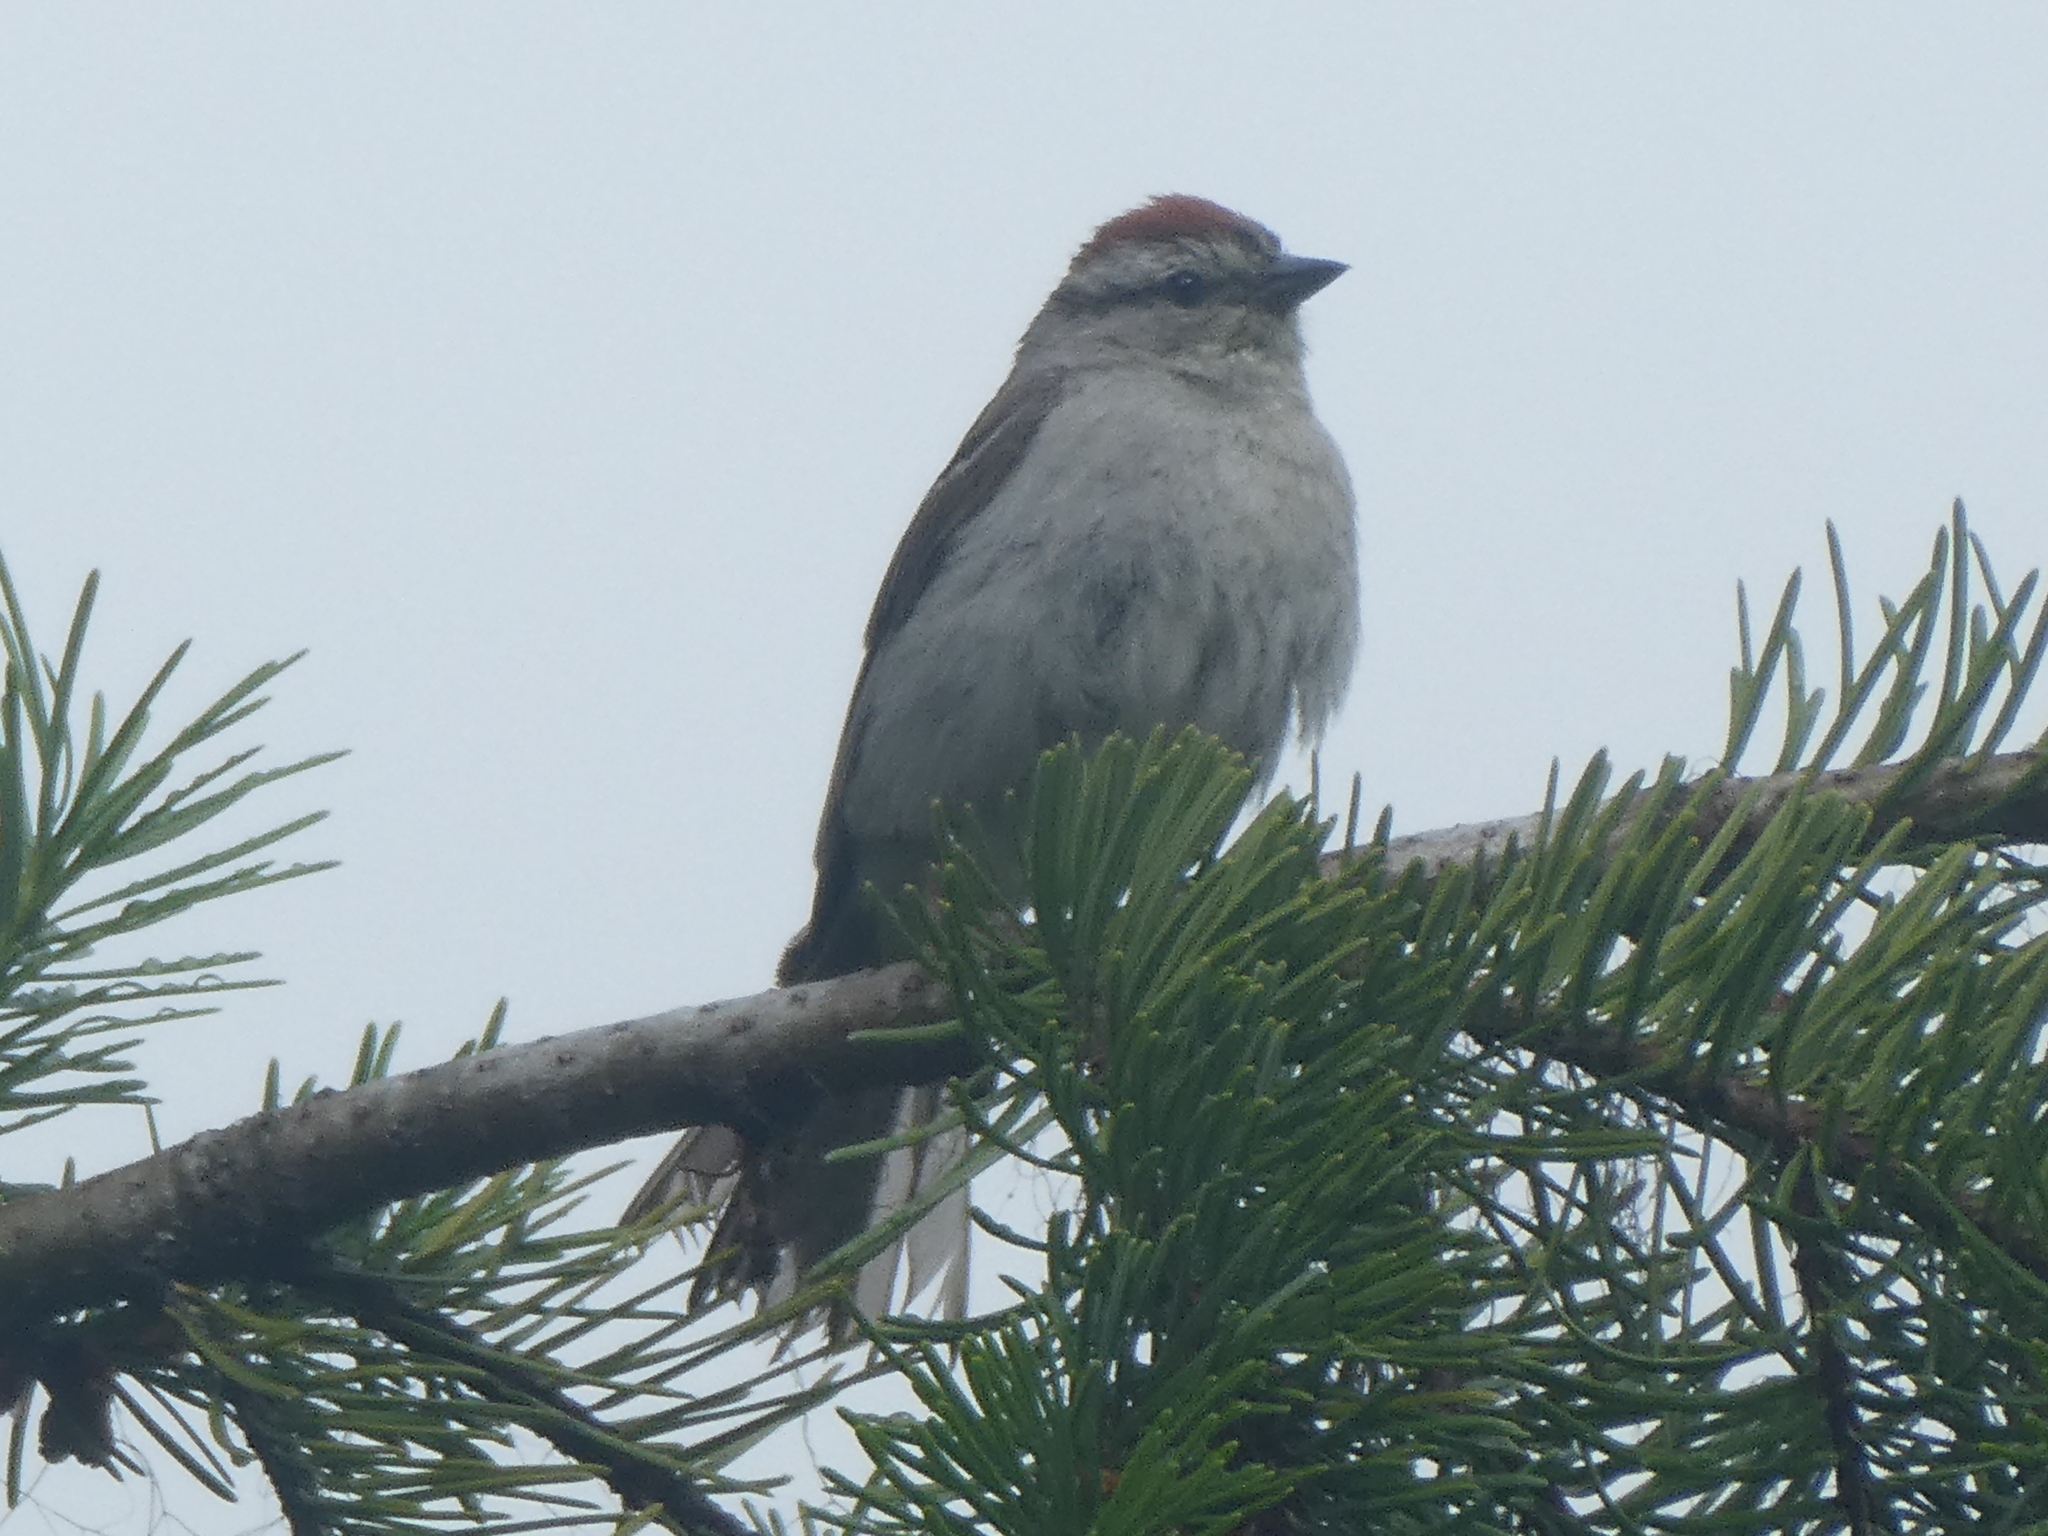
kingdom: Animalia
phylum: Chordata
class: Aves
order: Passeriformes
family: Passerellidae
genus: Spizella
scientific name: Spizella passerina
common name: Chipping sparrow
